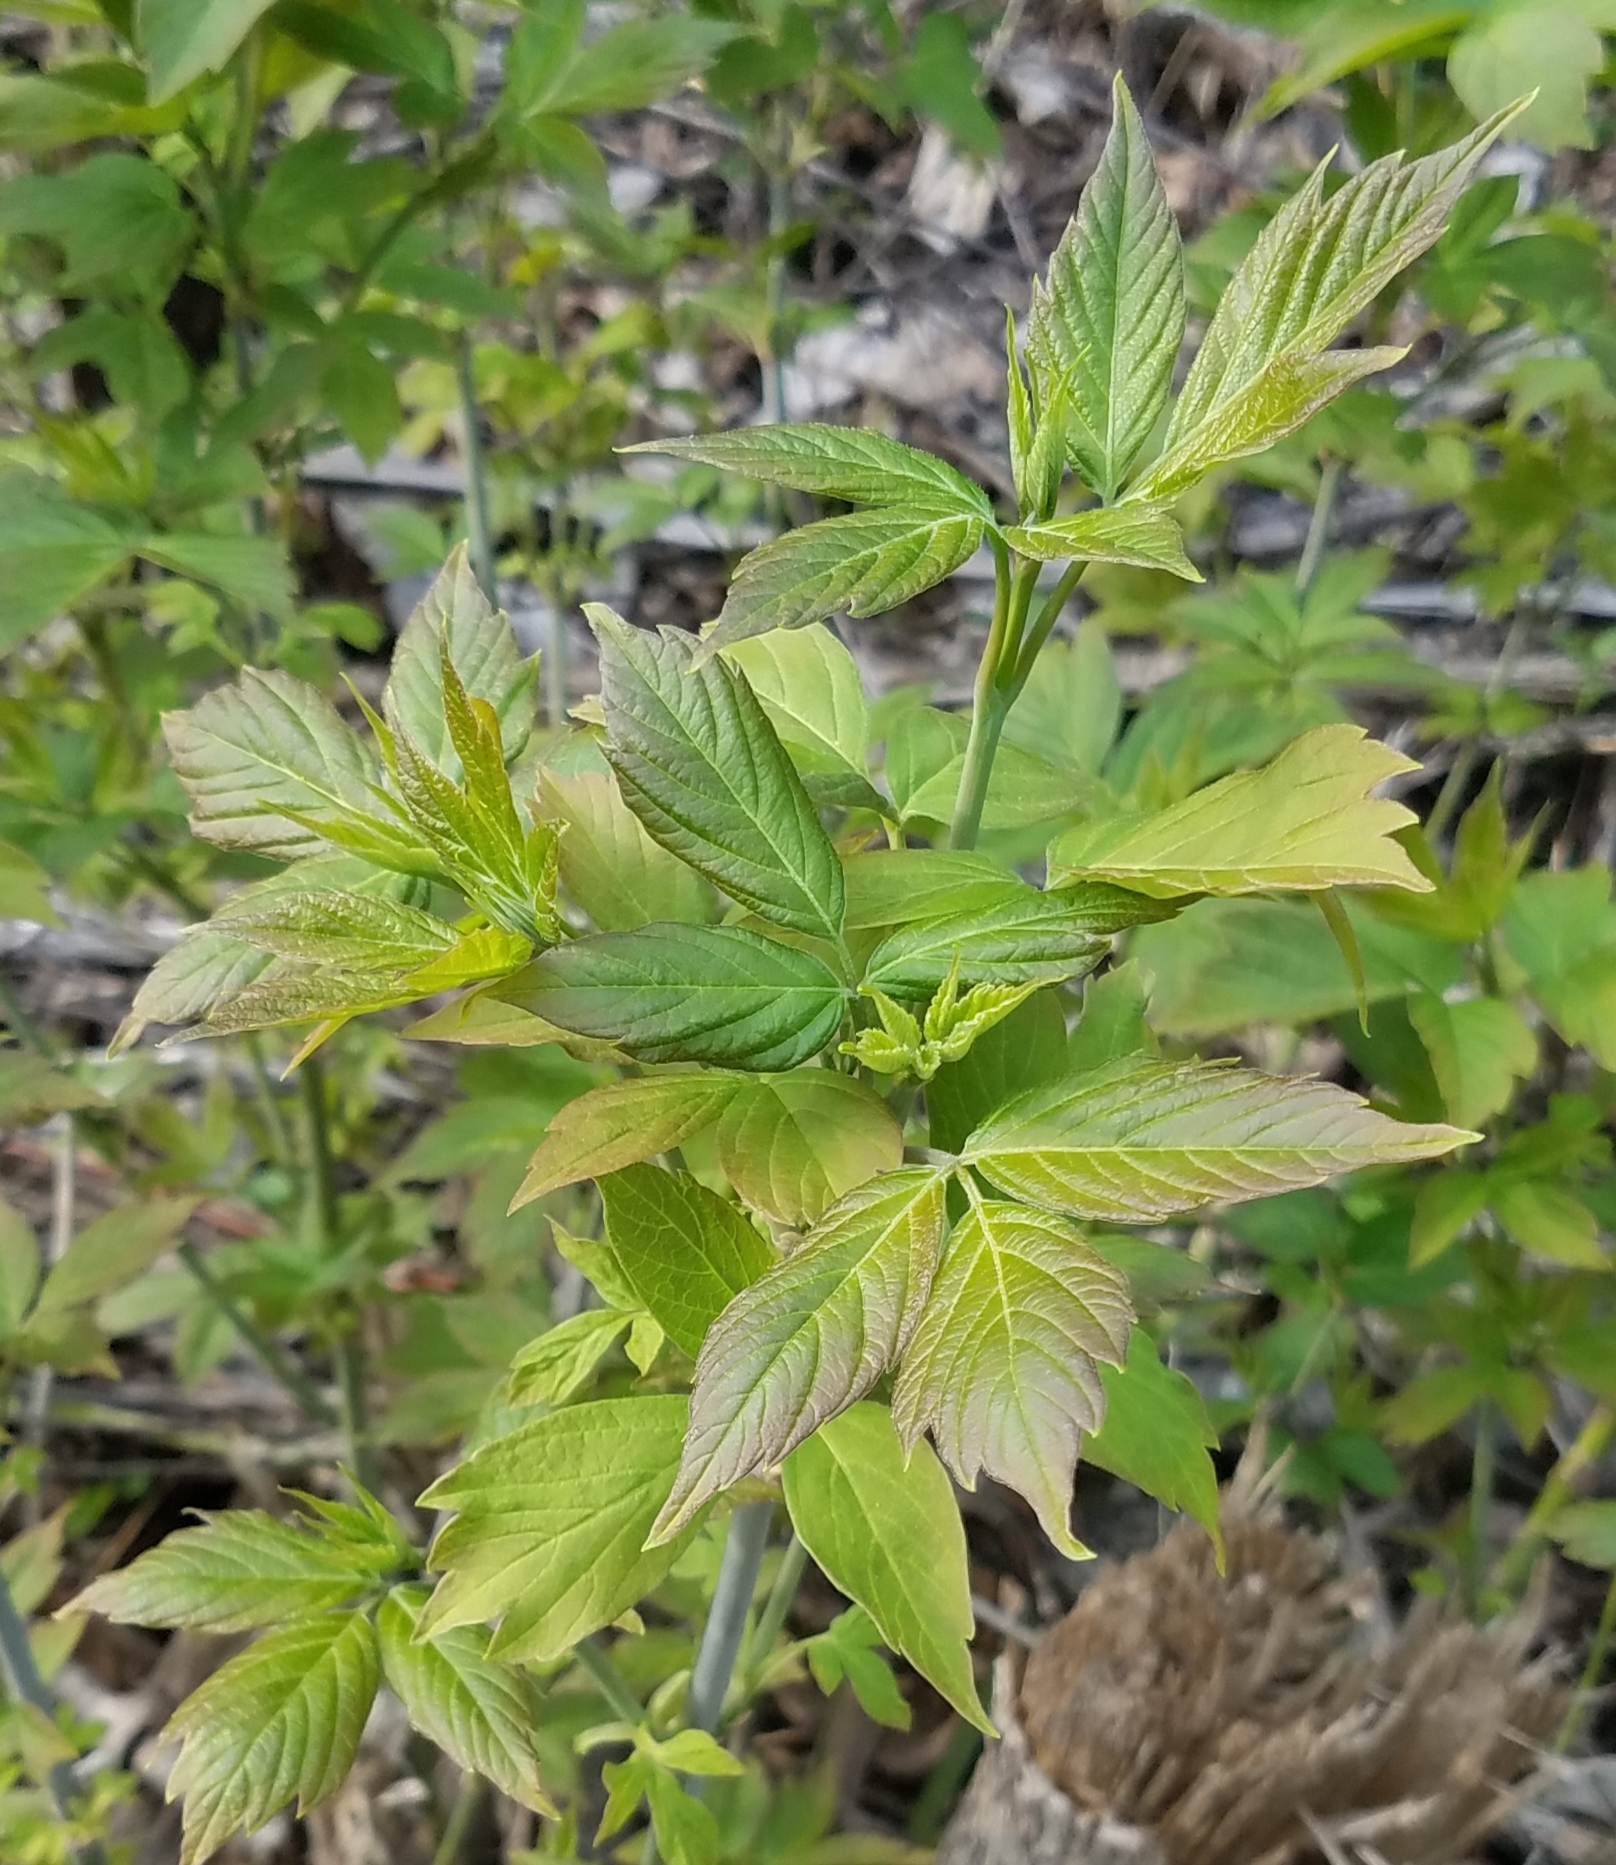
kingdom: Plantae
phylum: Tracheophyta
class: Magnoliopsida
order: Sapindales
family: Sapindaceae
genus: Acer
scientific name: Acer negundo
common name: Ashleaf maple
